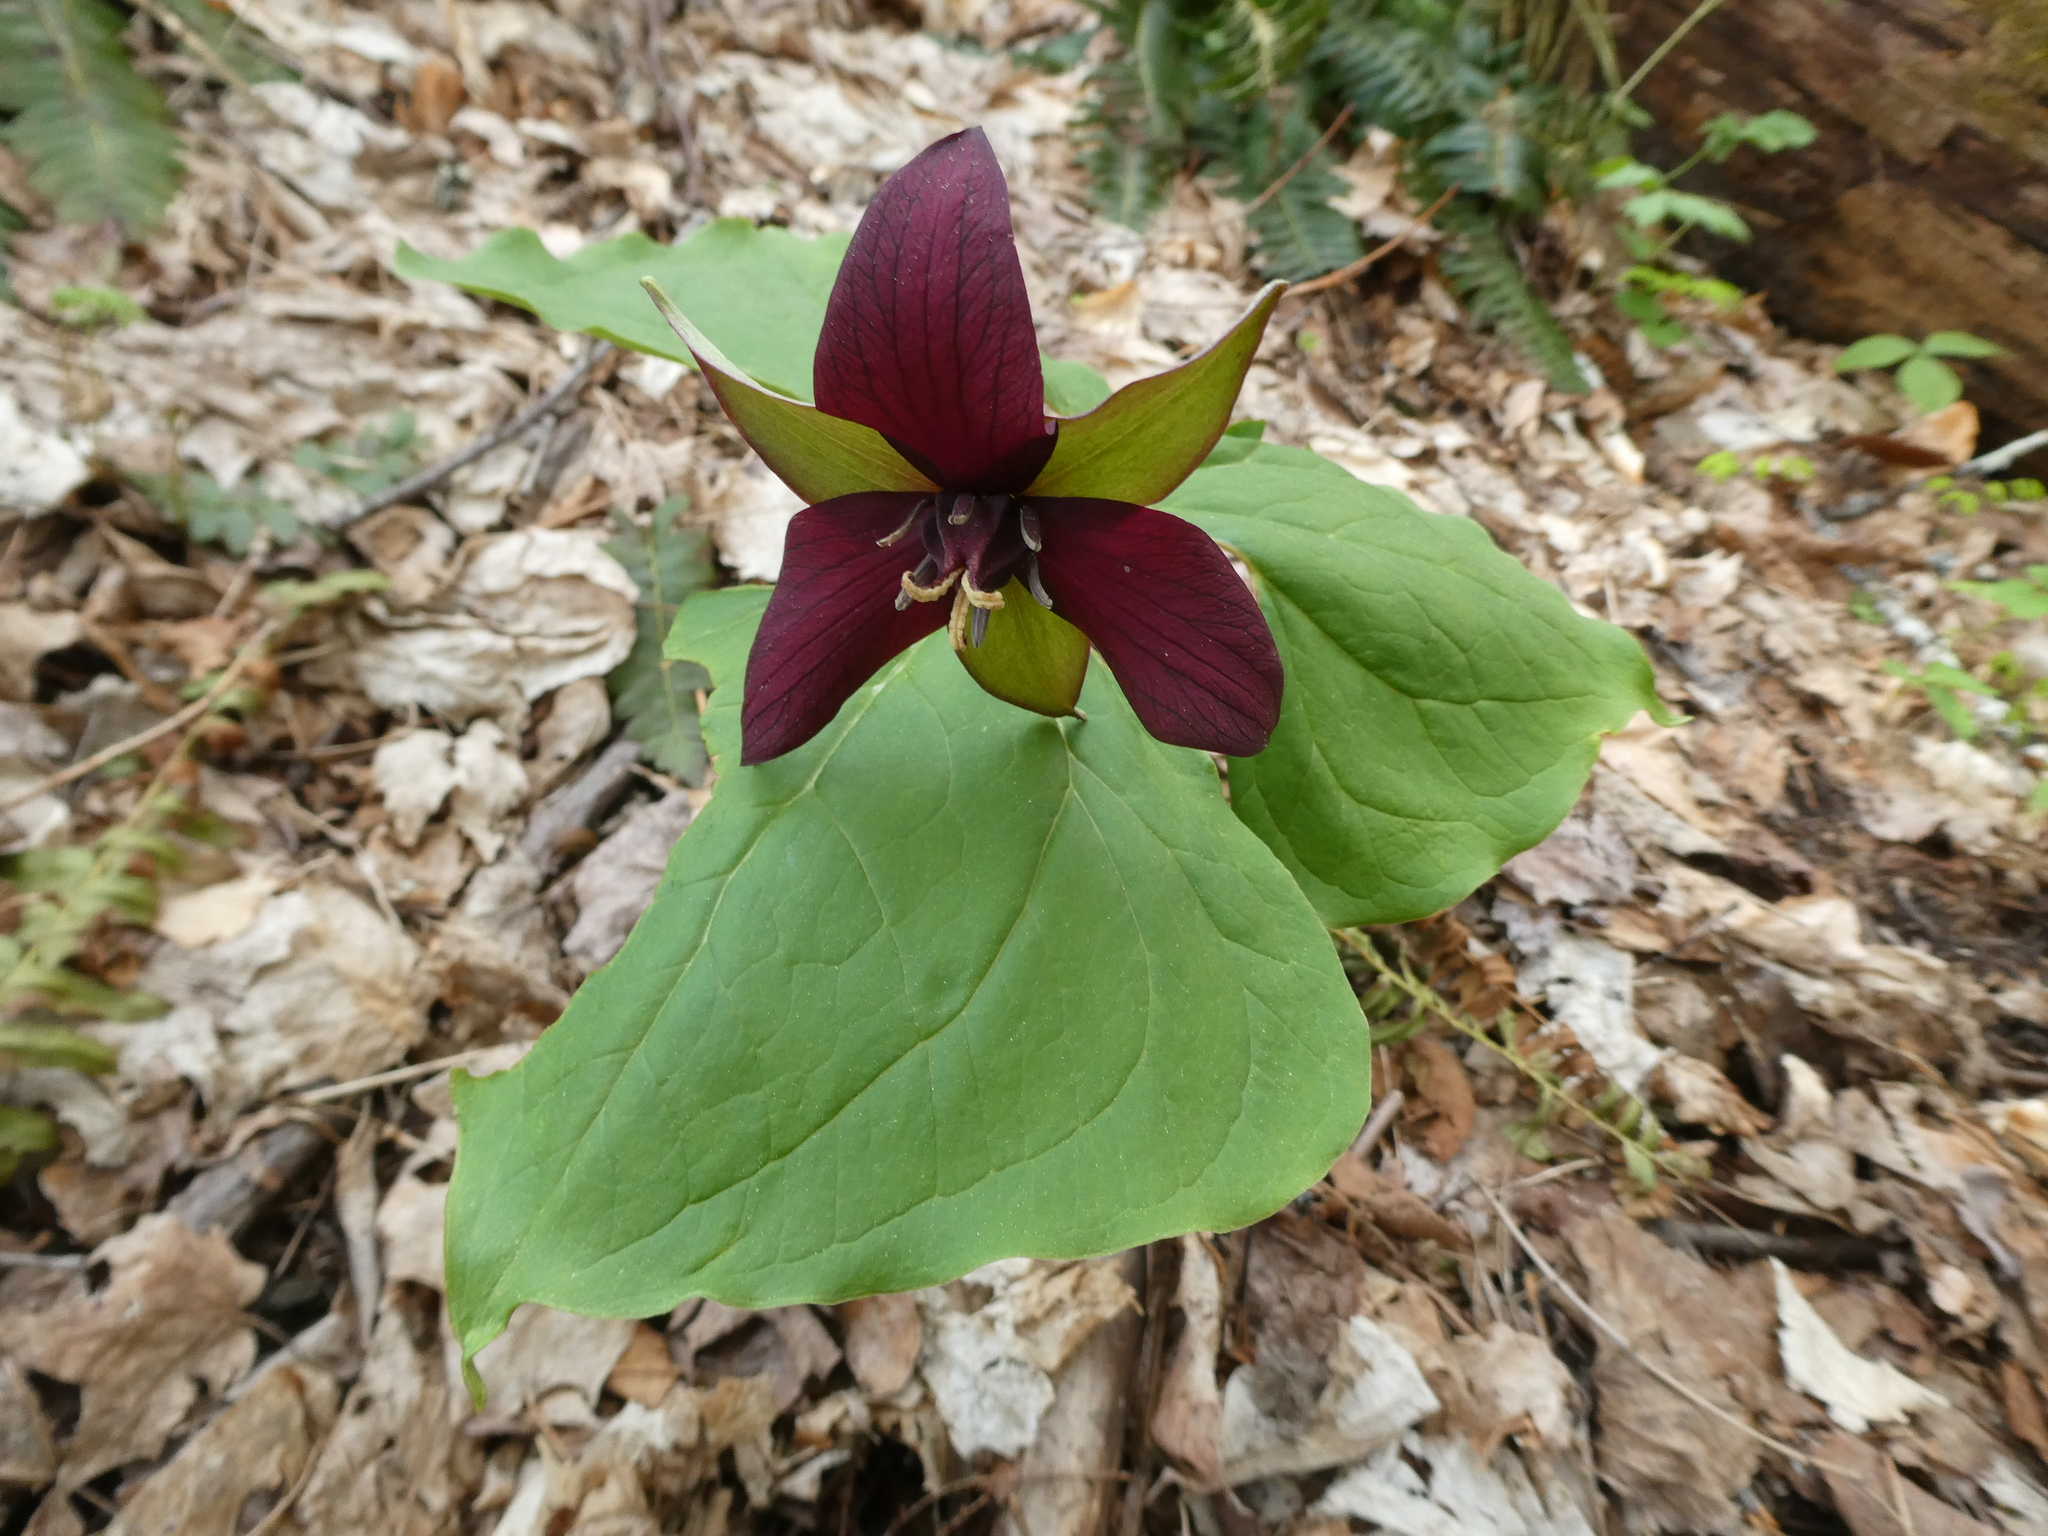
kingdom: Plantae
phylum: Tracheophyta
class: Liliopsida
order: Liliales
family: Melanthiaceae
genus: Trillium
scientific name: Trillium erectum
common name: Purple trillium
